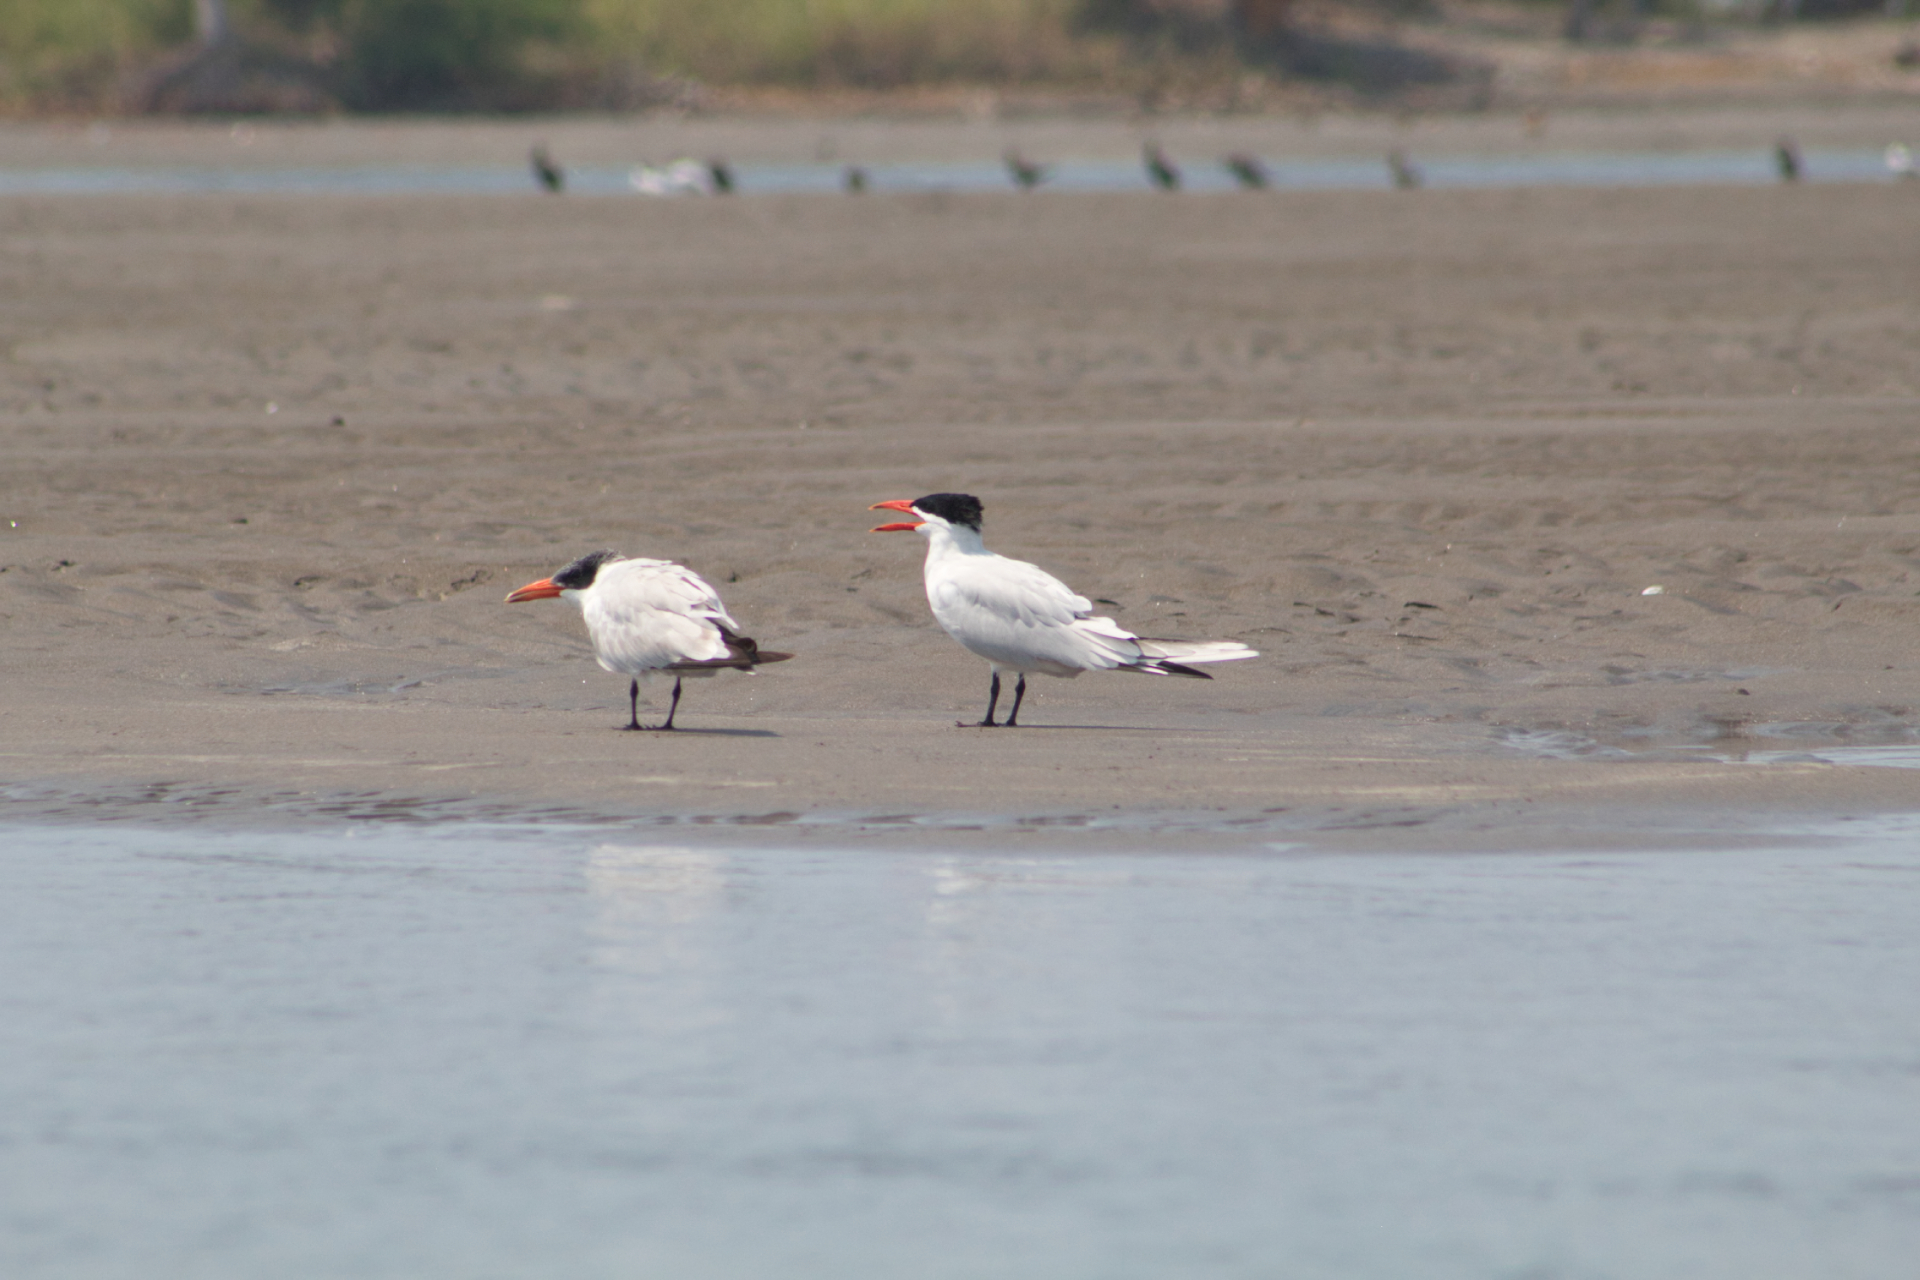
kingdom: Animalia
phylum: Chordata
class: Aves
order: Charadriiformes
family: Laridae
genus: Hydroprogne
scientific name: Hydroprogne caspia
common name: Caspian tern
